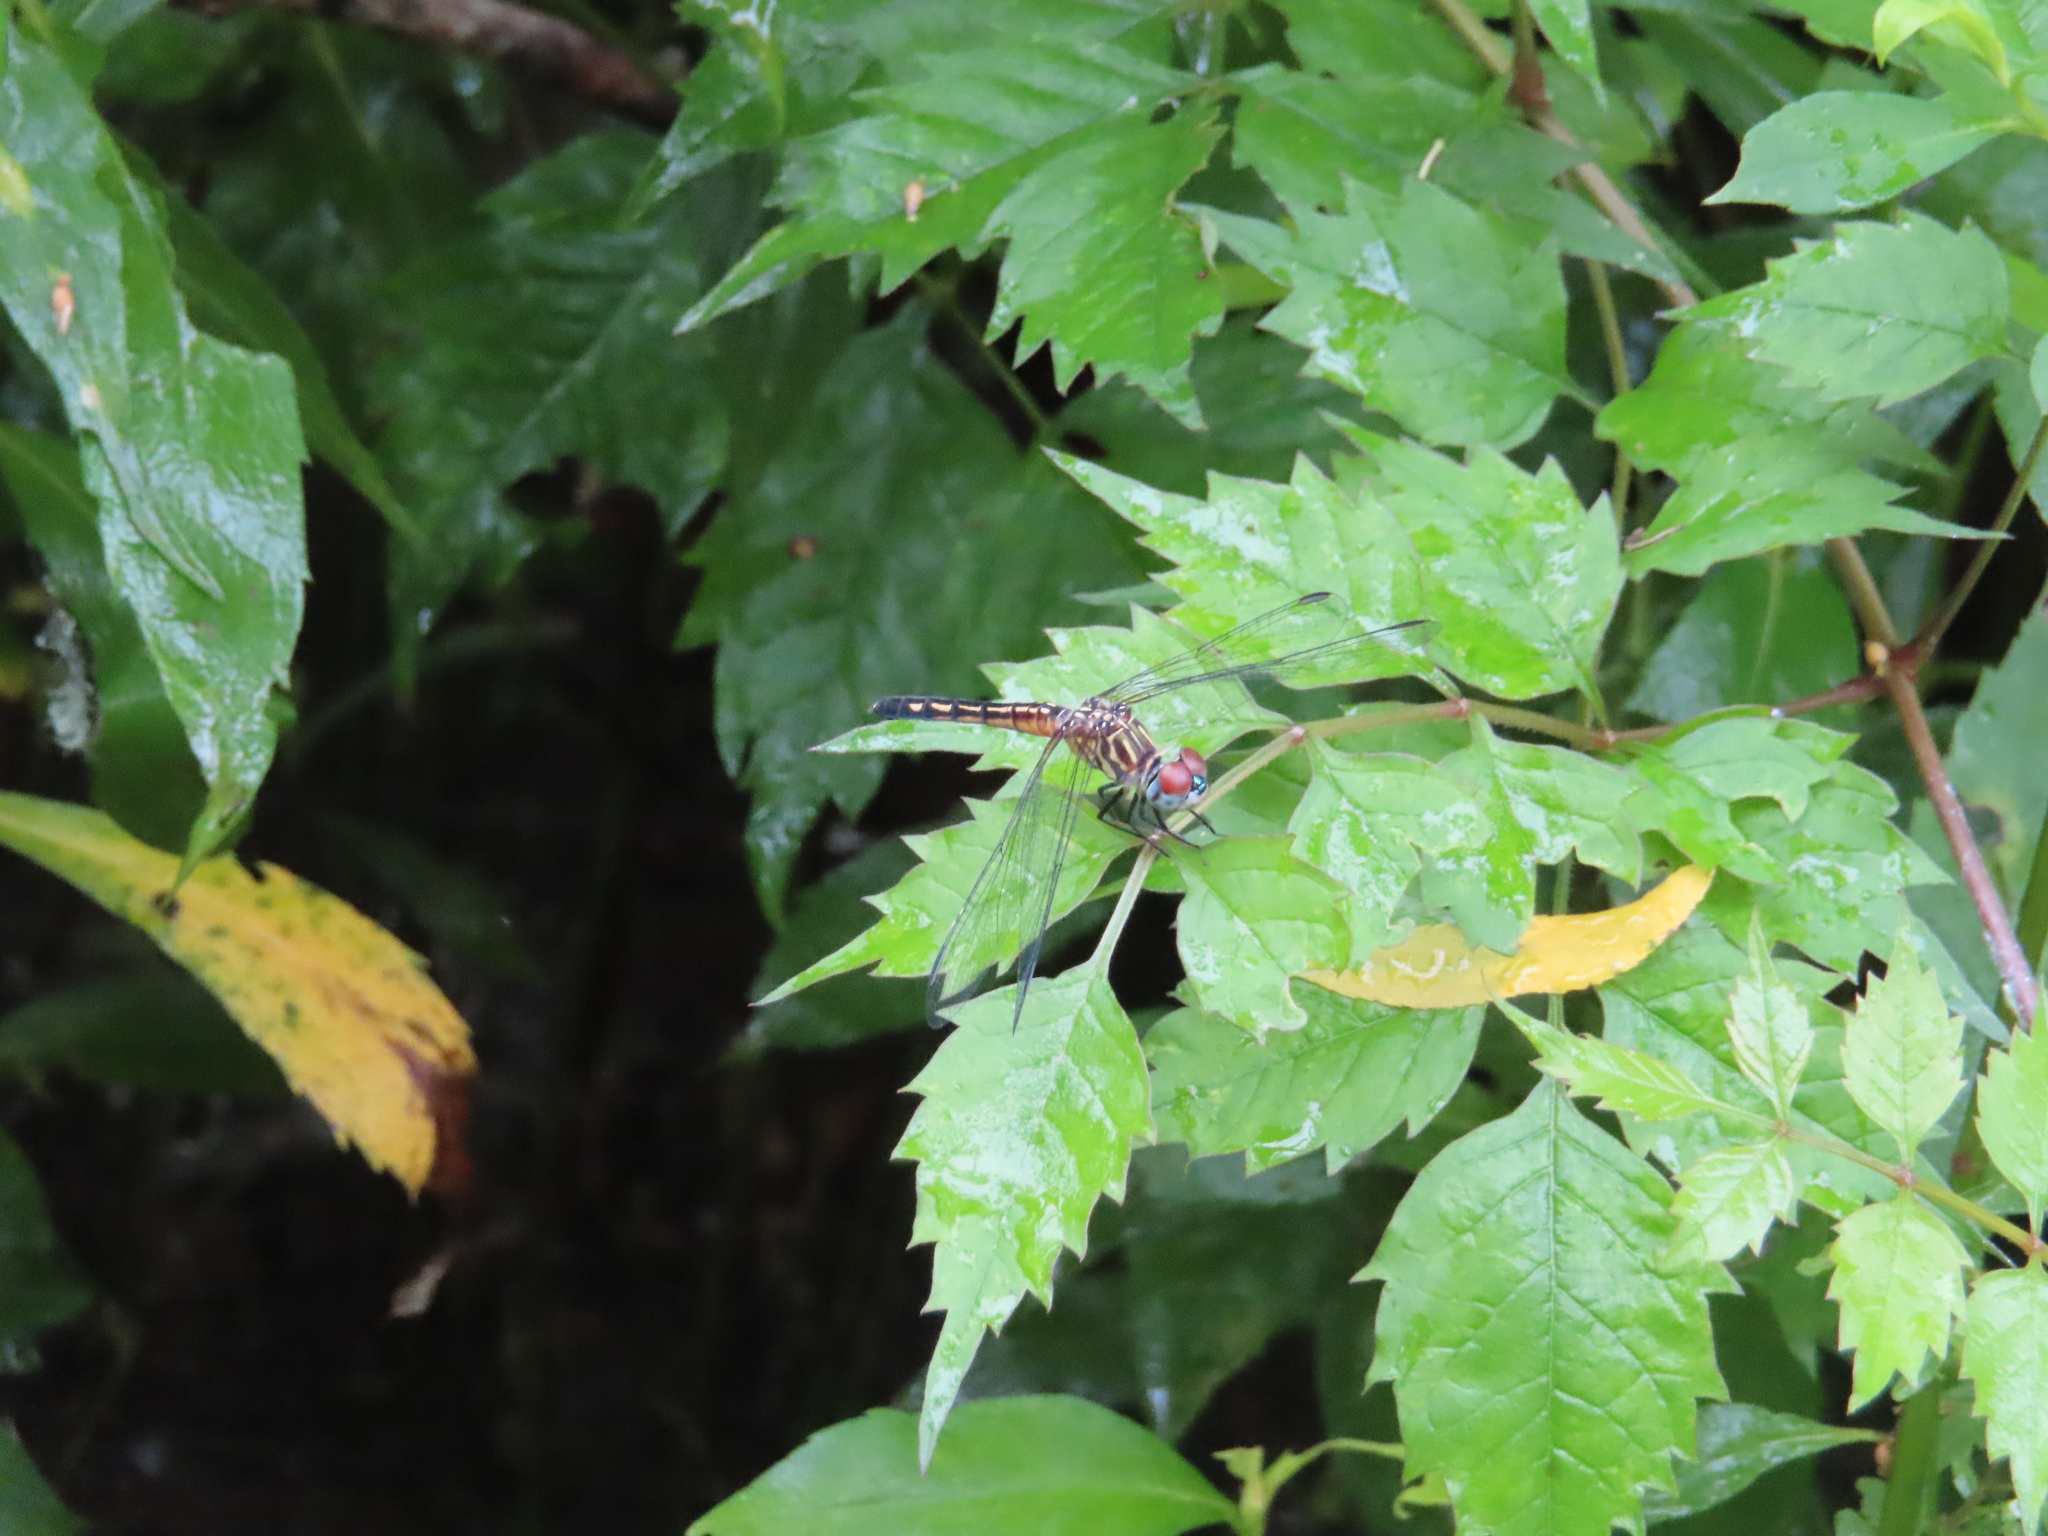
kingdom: Plantae
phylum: Tracheophyta
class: Magnoliopsida
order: Lamiales
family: Bignoniaceae
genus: Campsis
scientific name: Campsis radicans
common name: Trumpet-creeper
